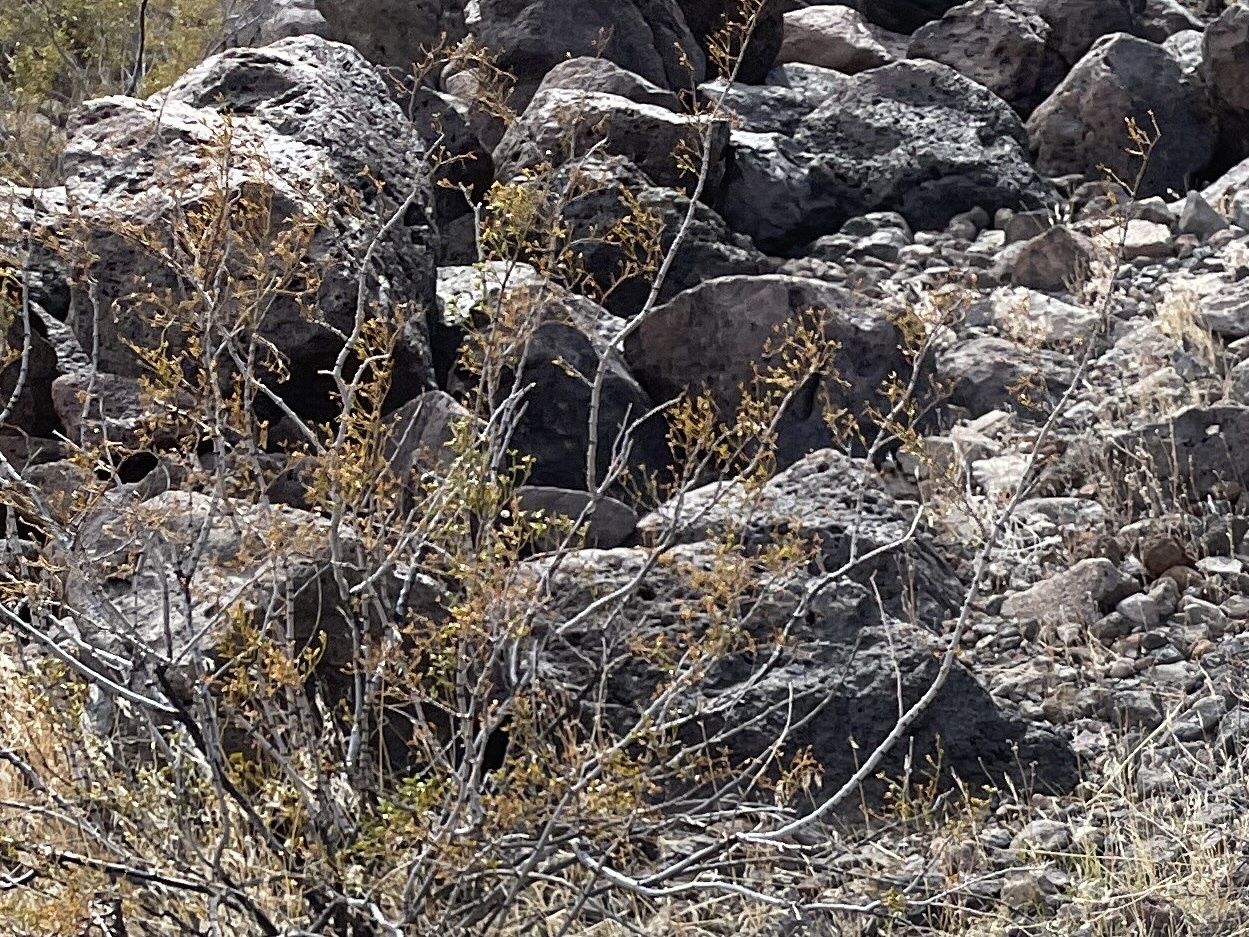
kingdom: Plantae
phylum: Tracheophyta
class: Magnoliopsida
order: Zygophyllales
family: Zygophyllaceae
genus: Larrea
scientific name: Larrea tridentata
